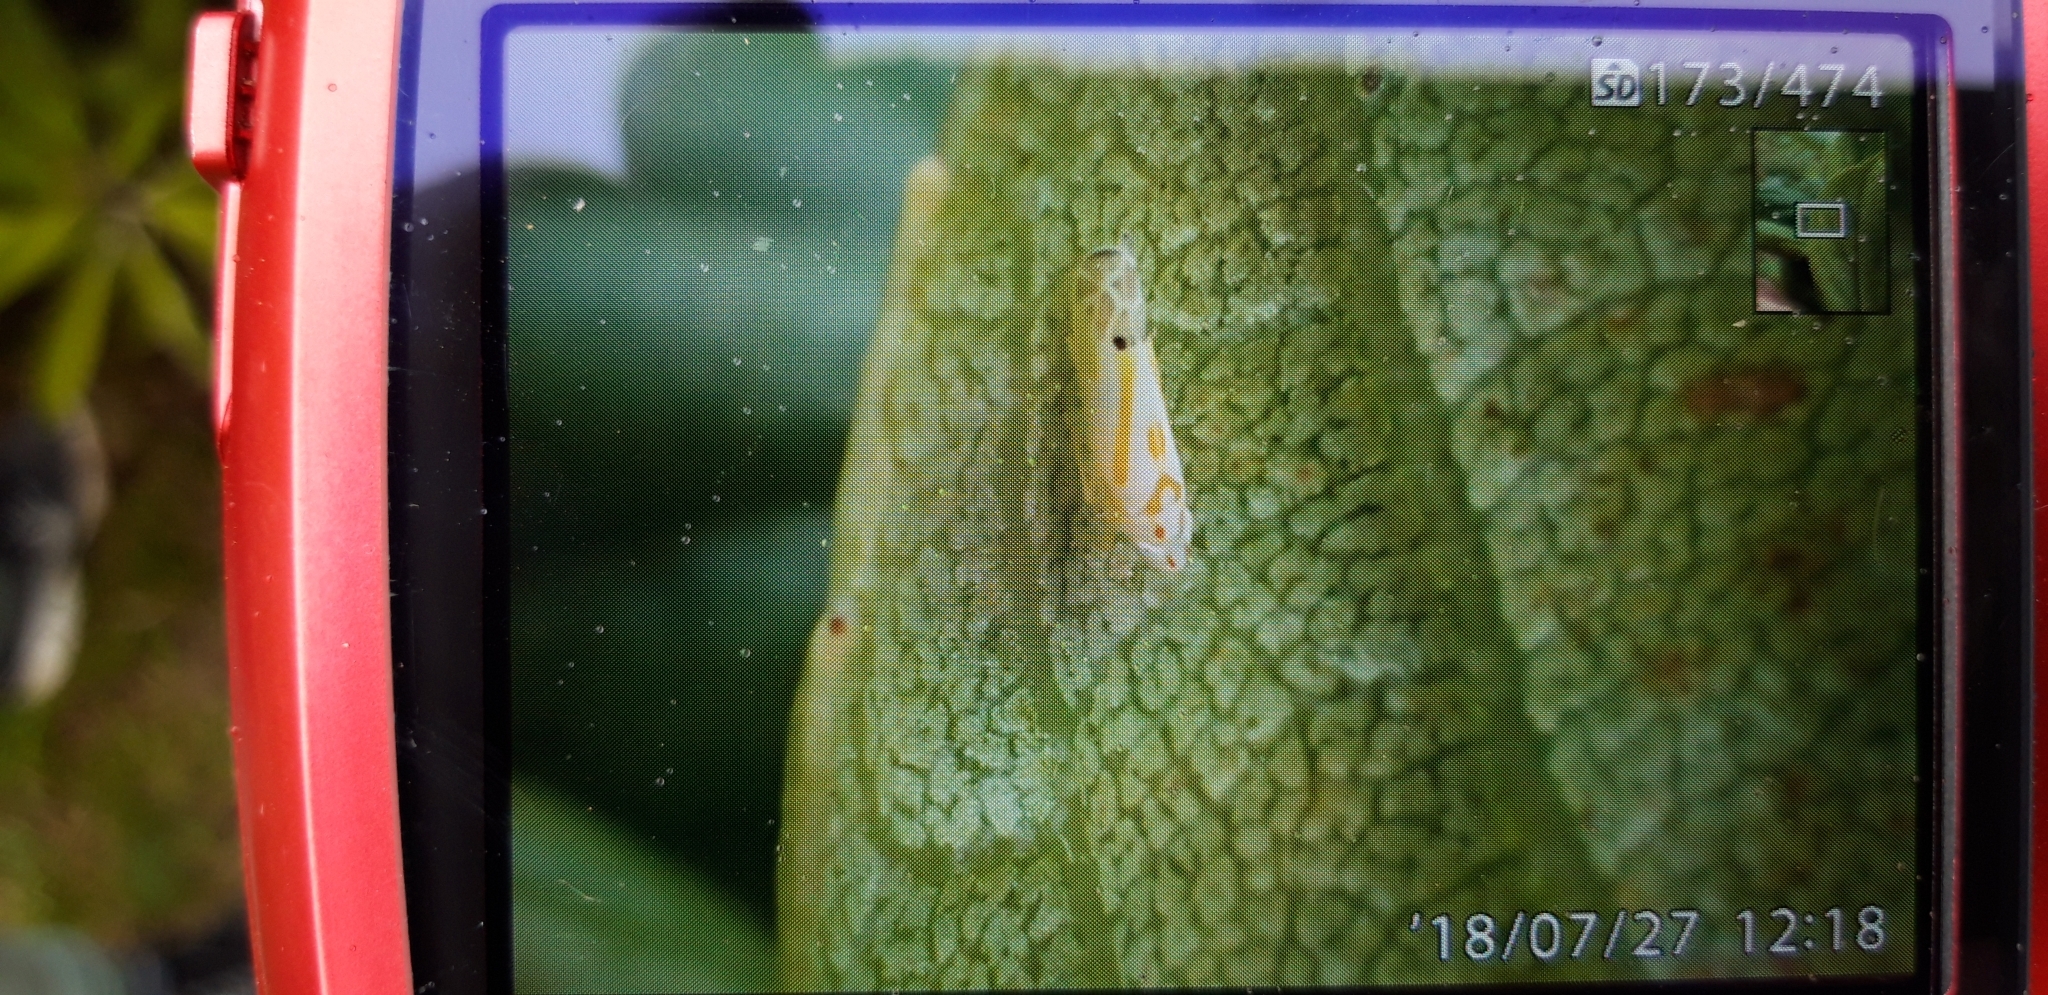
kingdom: Animalia
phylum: Arthropoda
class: Insecta
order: Hemiptera
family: Cicadellidae
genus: Chlorita
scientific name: Chlorita edithae
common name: Edith's leafhopper
